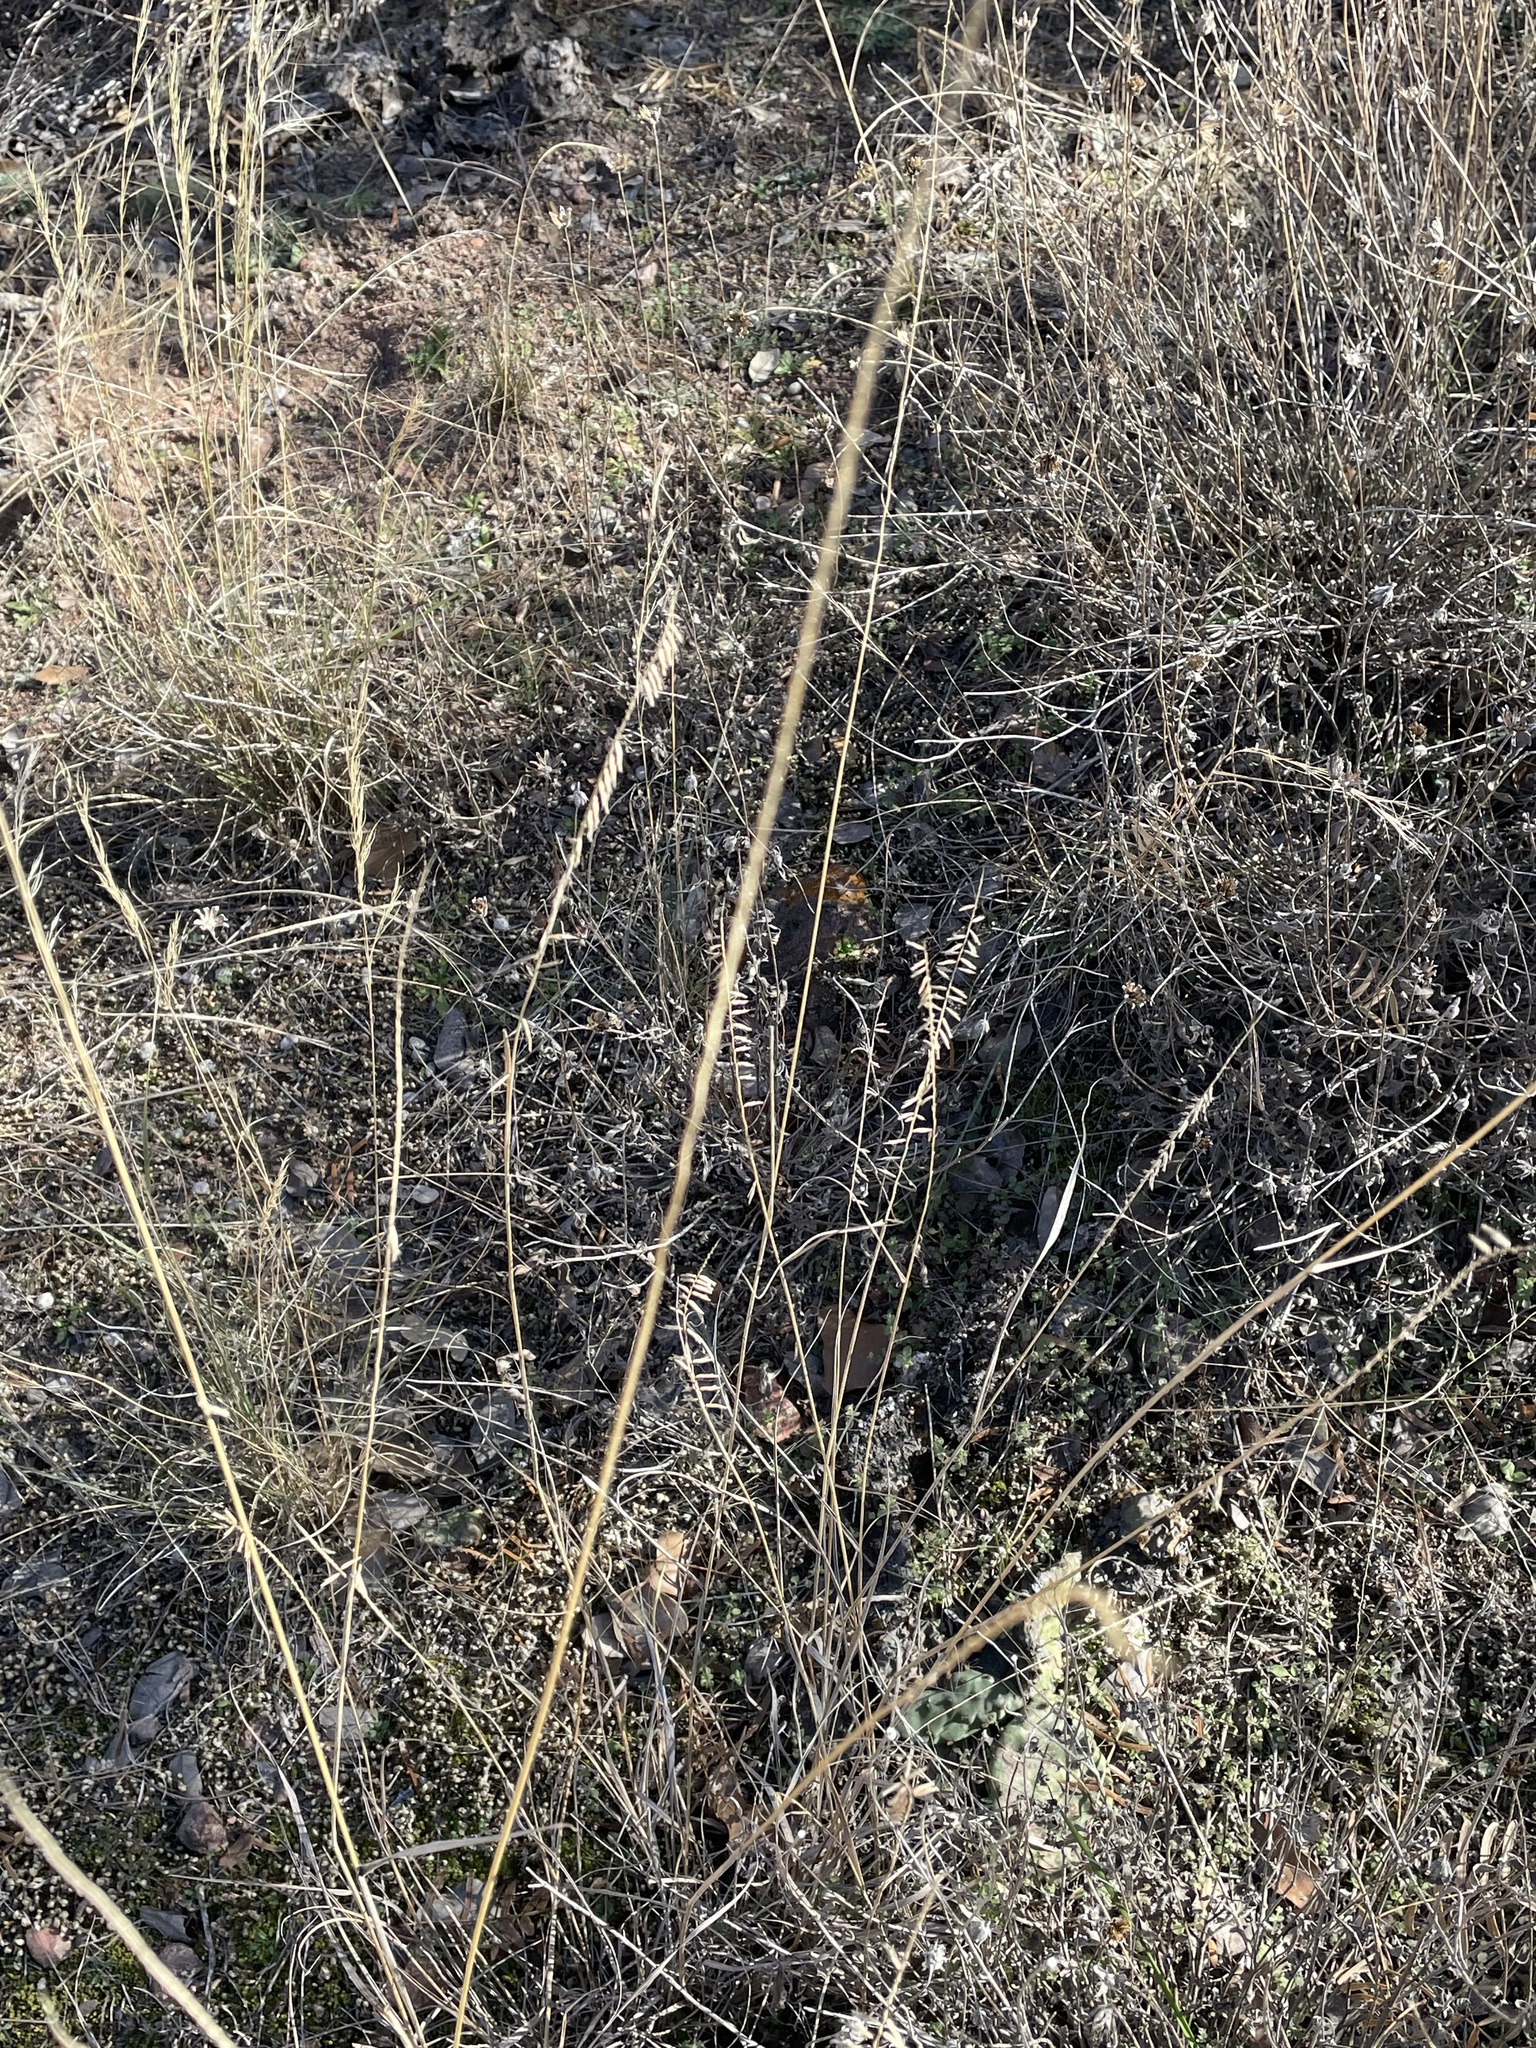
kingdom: Plantae
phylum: Tracheophyta
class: Liliopsida
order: Poales
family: Poaceae
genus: Bouteloua
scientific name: Bouteloua curtipendula
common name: Side-oats grama
